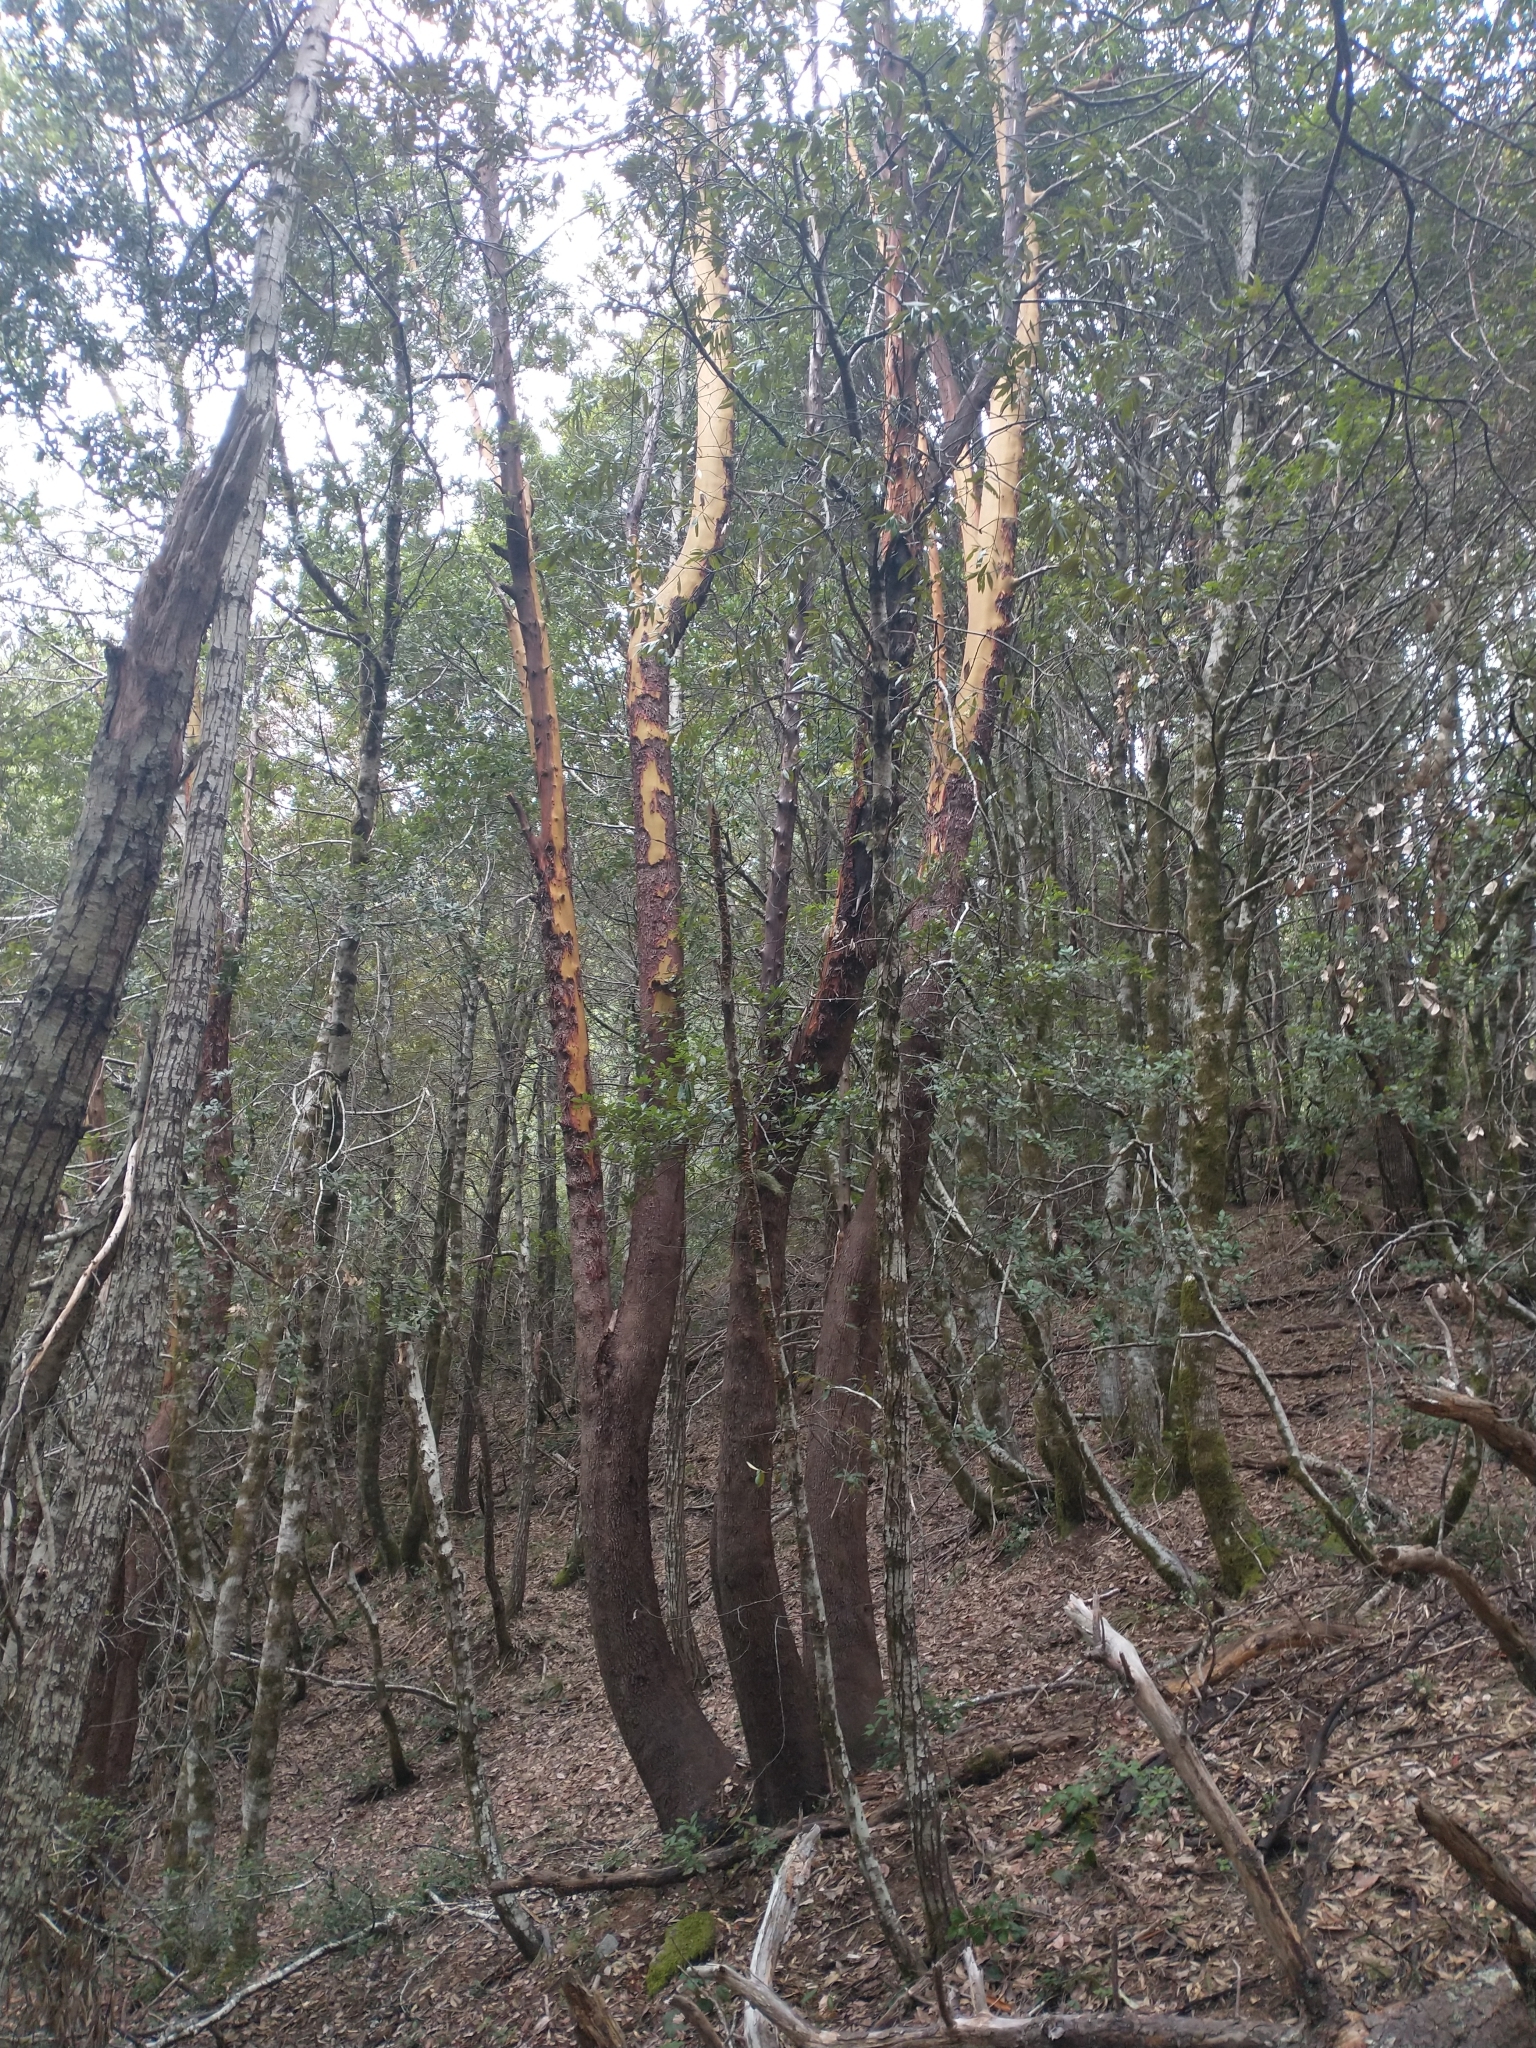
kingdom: Plantae
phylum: Tracheophyta
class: Magnoliopsida
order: Ericales
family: Ericaceae
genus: Arbutus
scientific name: Arbutus menziesii
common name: Pacific madrone
